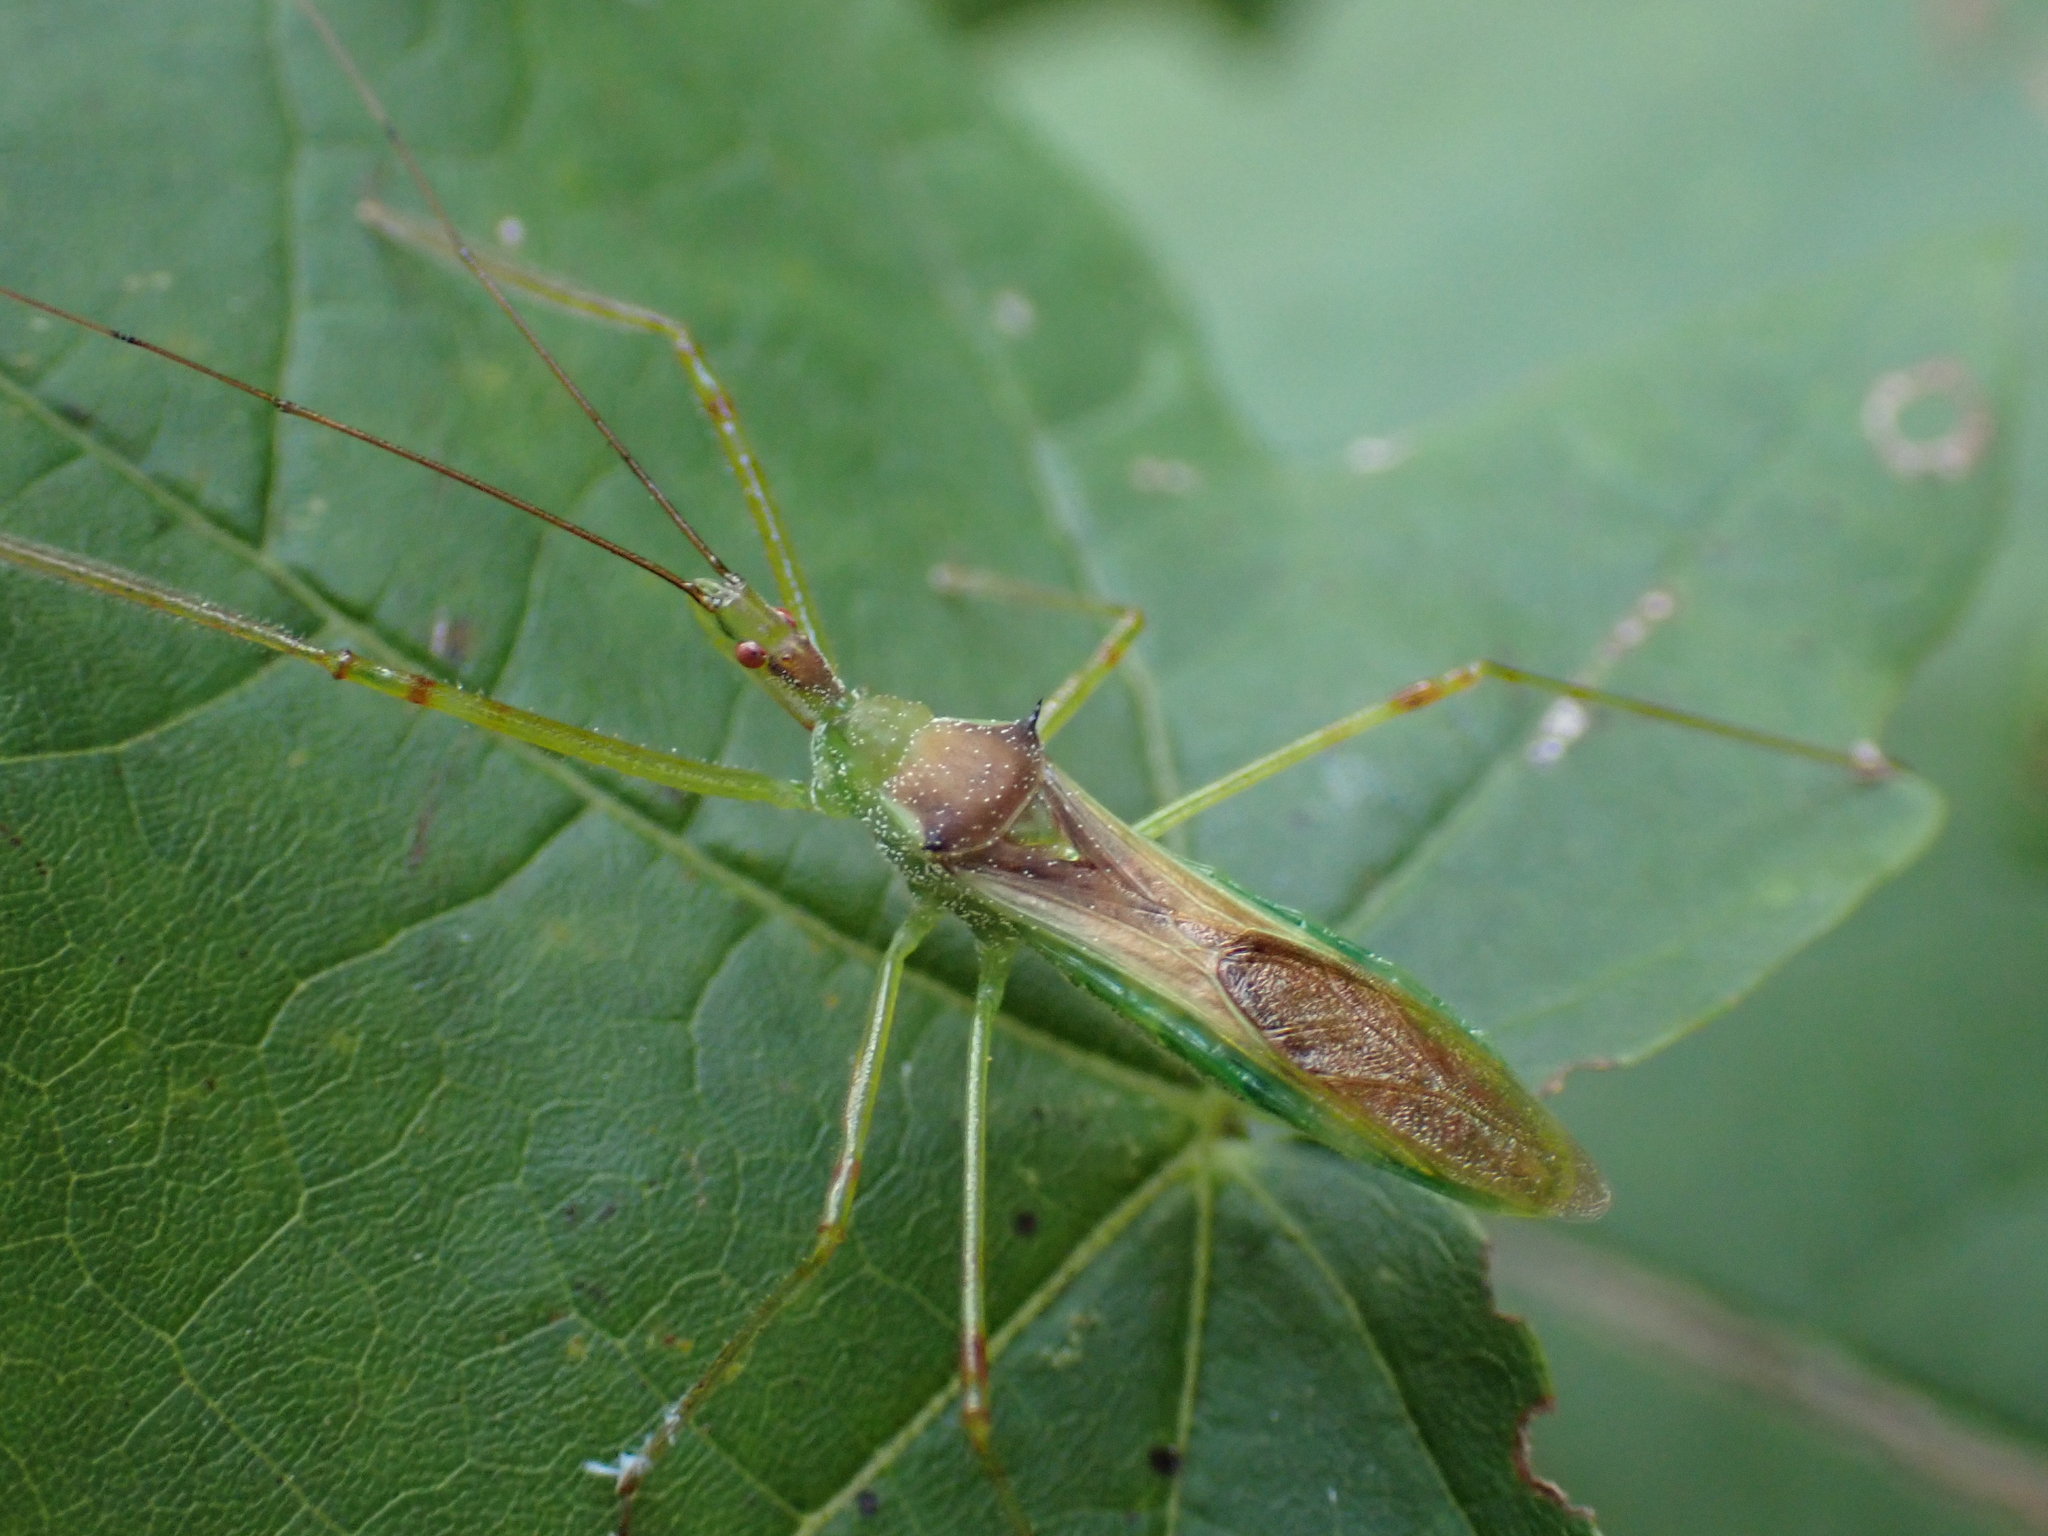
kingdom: Animalia
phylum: Arthropoda
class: Insecta
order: Hemiptera
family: Reduviidae
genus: Zelus
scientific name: Zelus luridus
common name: Pale green assassin bug
